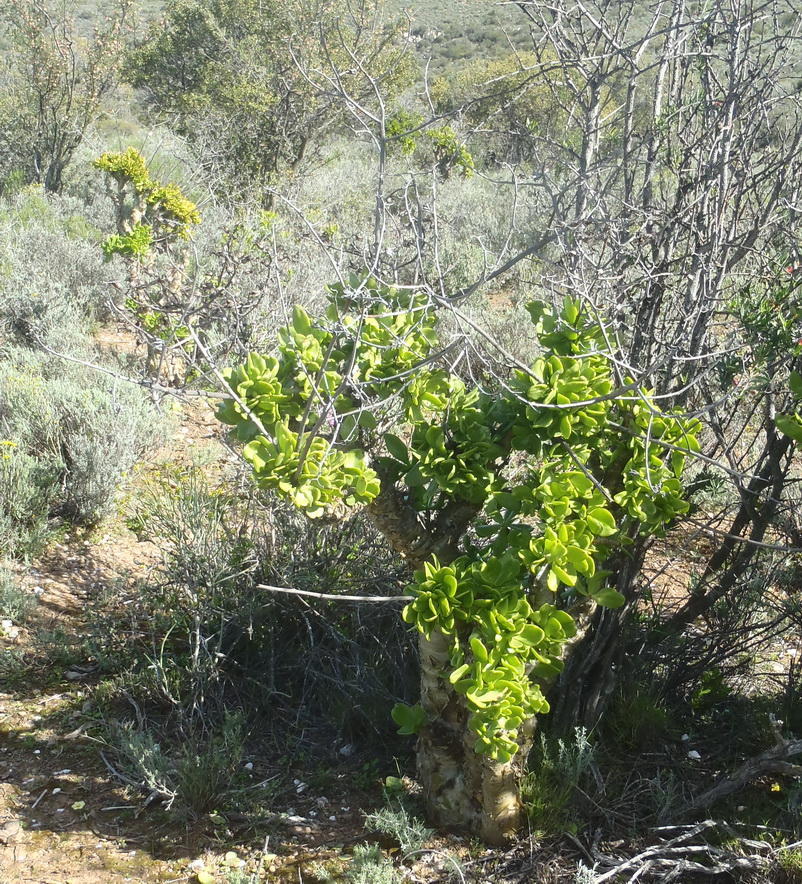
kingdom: Plantae
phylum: Tracheophyta
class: Magnoliopsida
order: Saxifragales
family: Crassulaceae
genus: Tylecodon
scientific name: Tylecodon paniculatus
